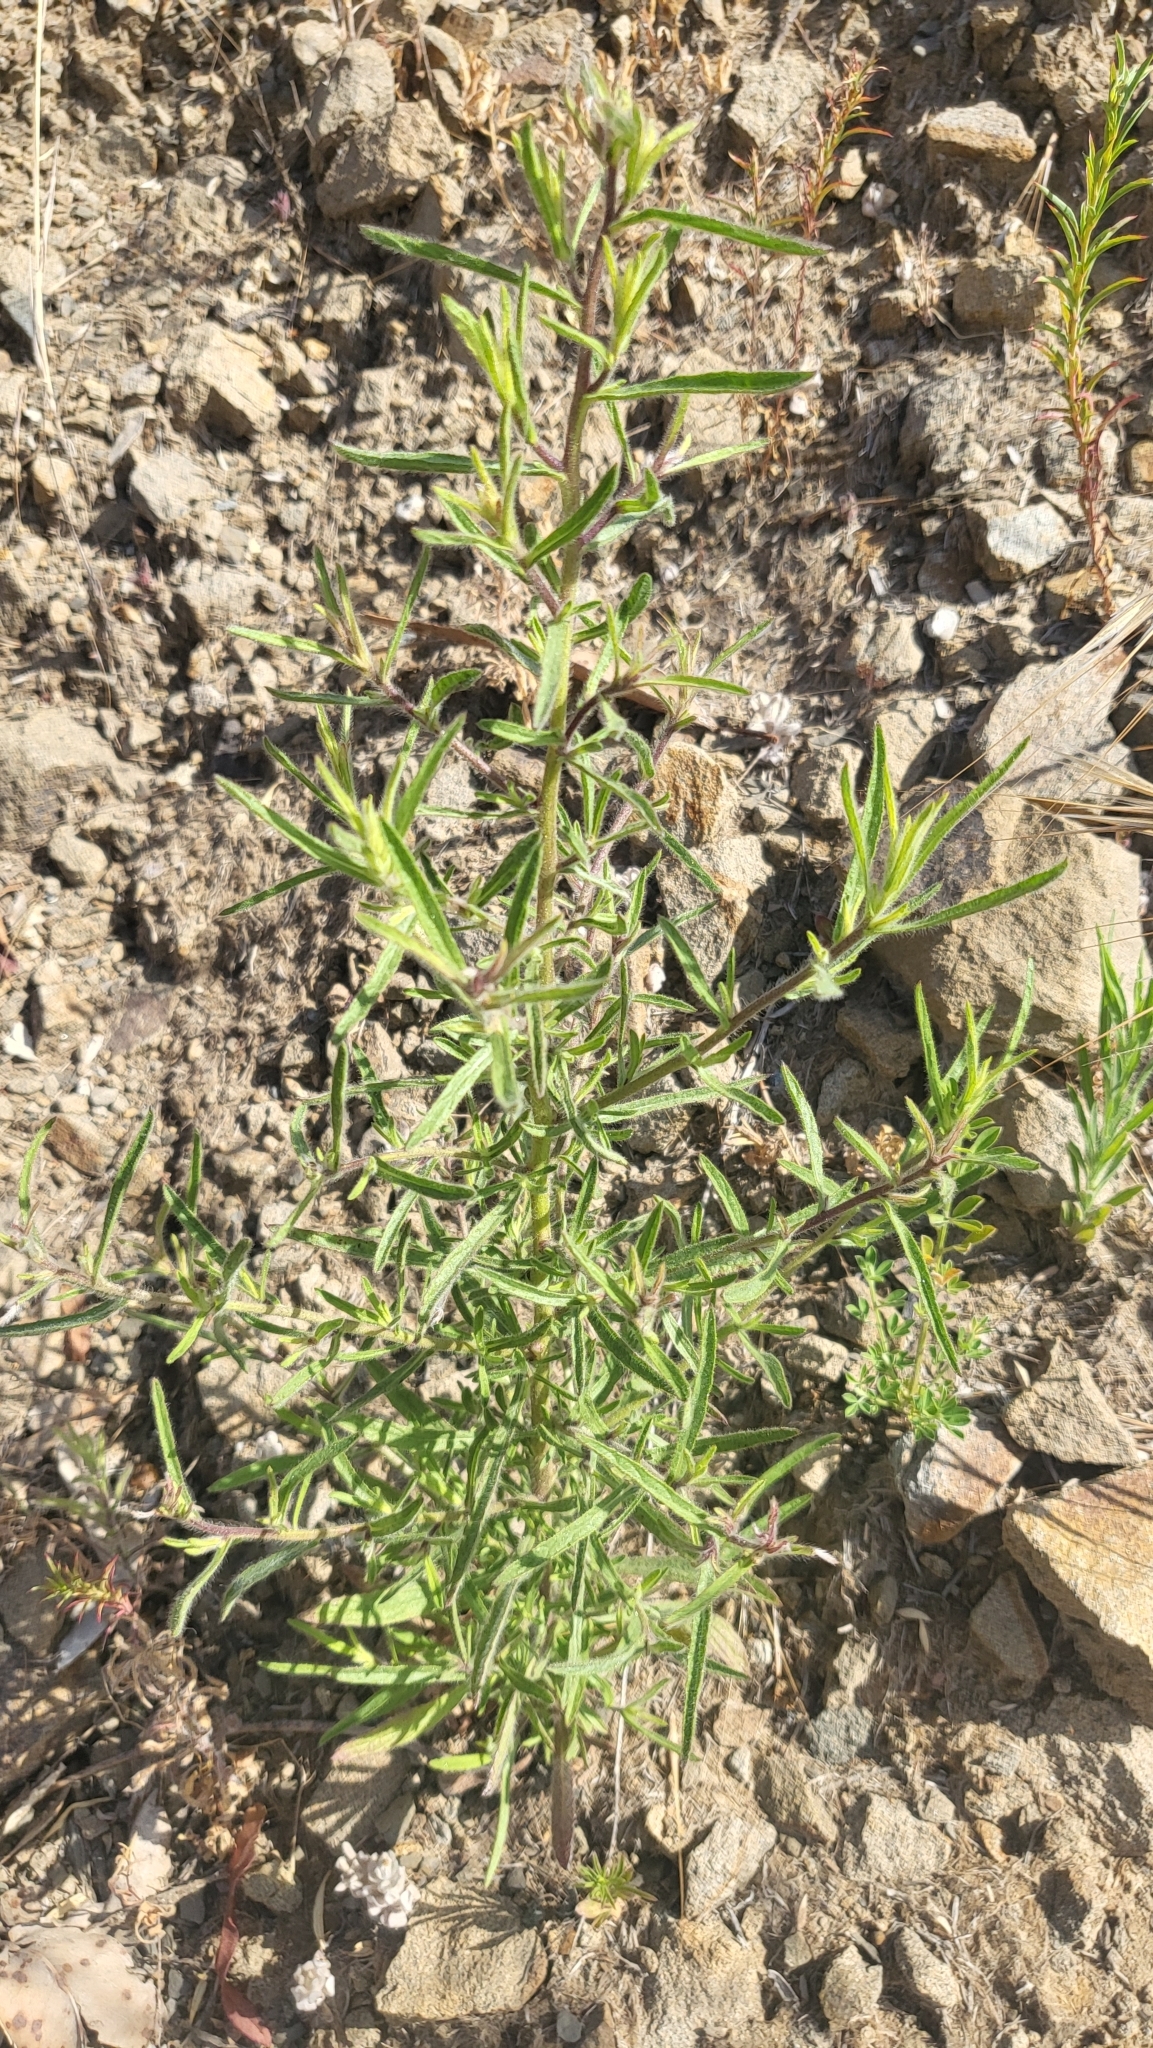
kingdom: Plantae
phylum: Tracheophyta
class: Magnoliopsida
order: Asterales
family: Asteraceae
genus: Dittrichia
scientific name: Dittrichia graveolens
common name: Stinking fleabane
